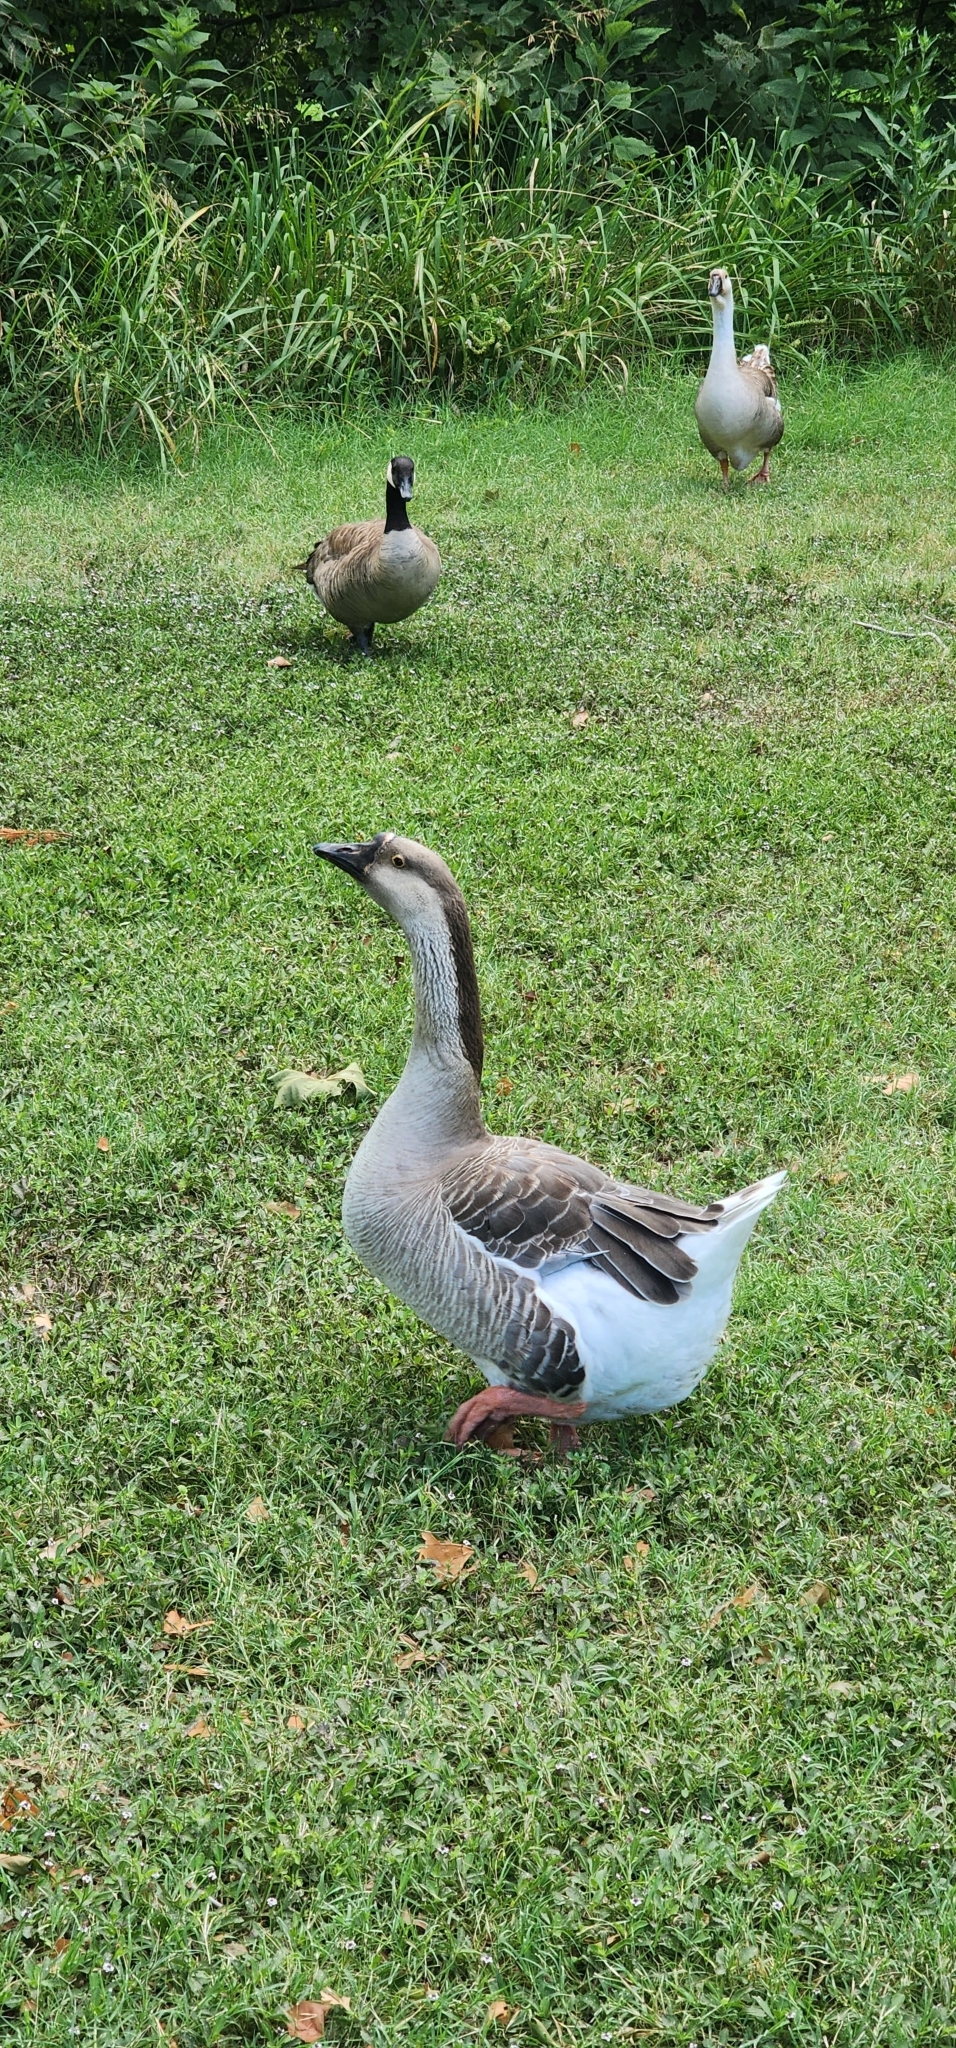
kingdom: Animalia
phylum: Chordata
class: Aves
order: Anseriformes
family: Anatidae
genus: Anser
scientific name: Anser cygnoides
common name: Swan goose
